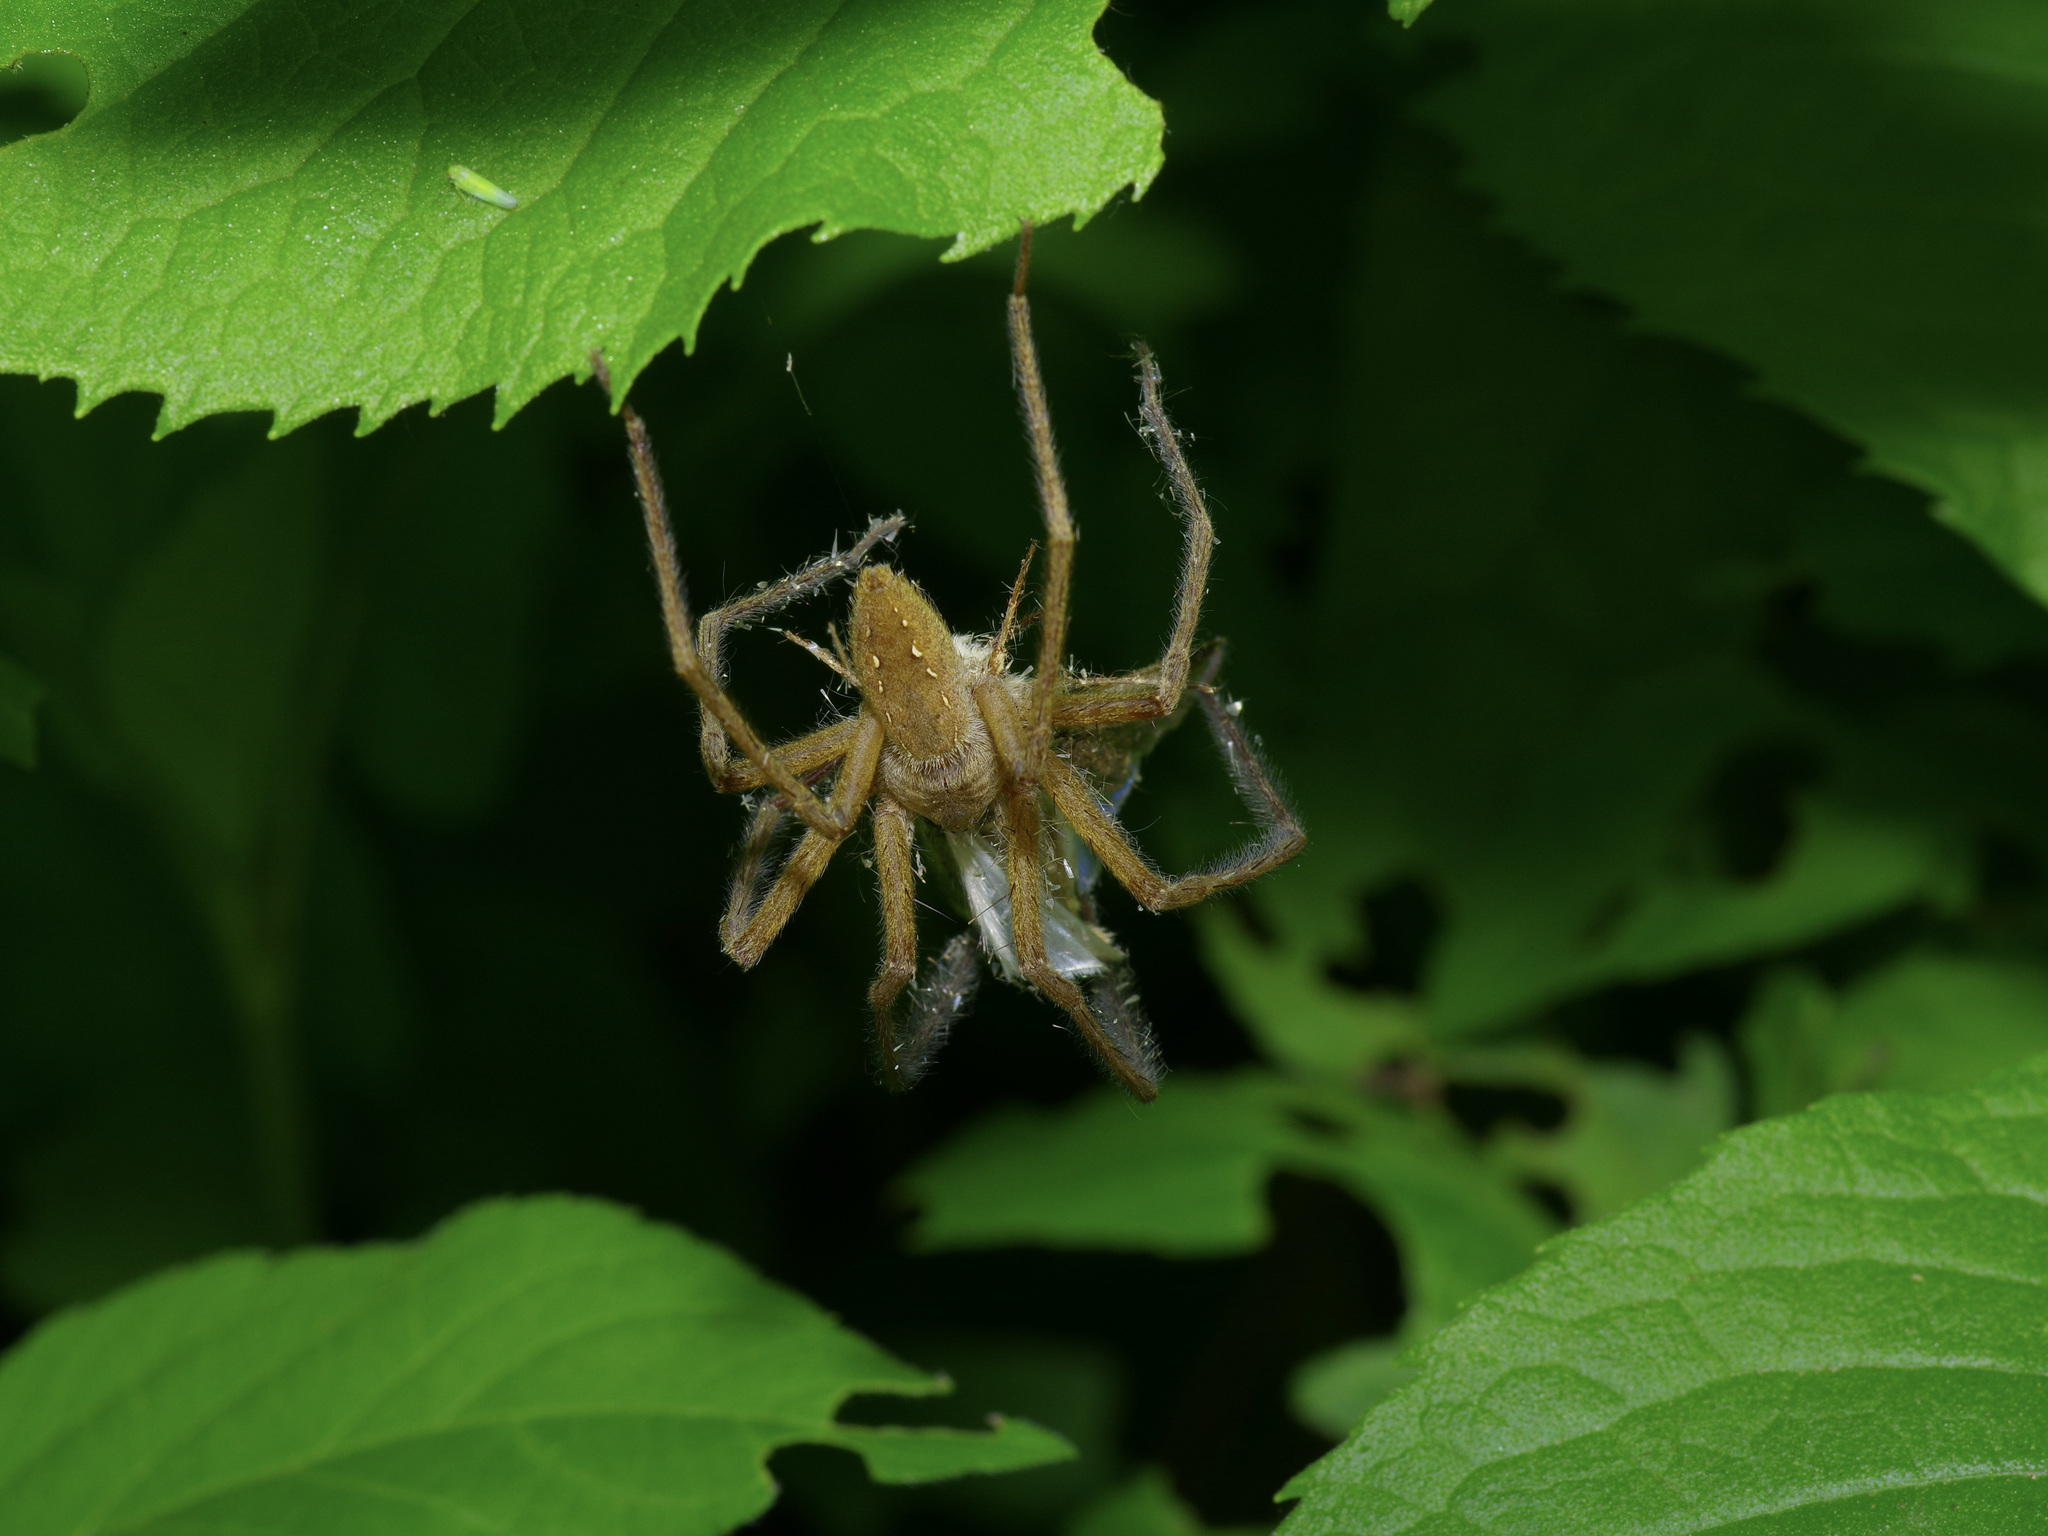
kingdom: Animalia
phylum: Arthropoda
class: Arachnida
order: Araneae
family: Pisauridae
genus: Pisaurina
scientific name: Pisaurina mira
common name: American nursery web spider
